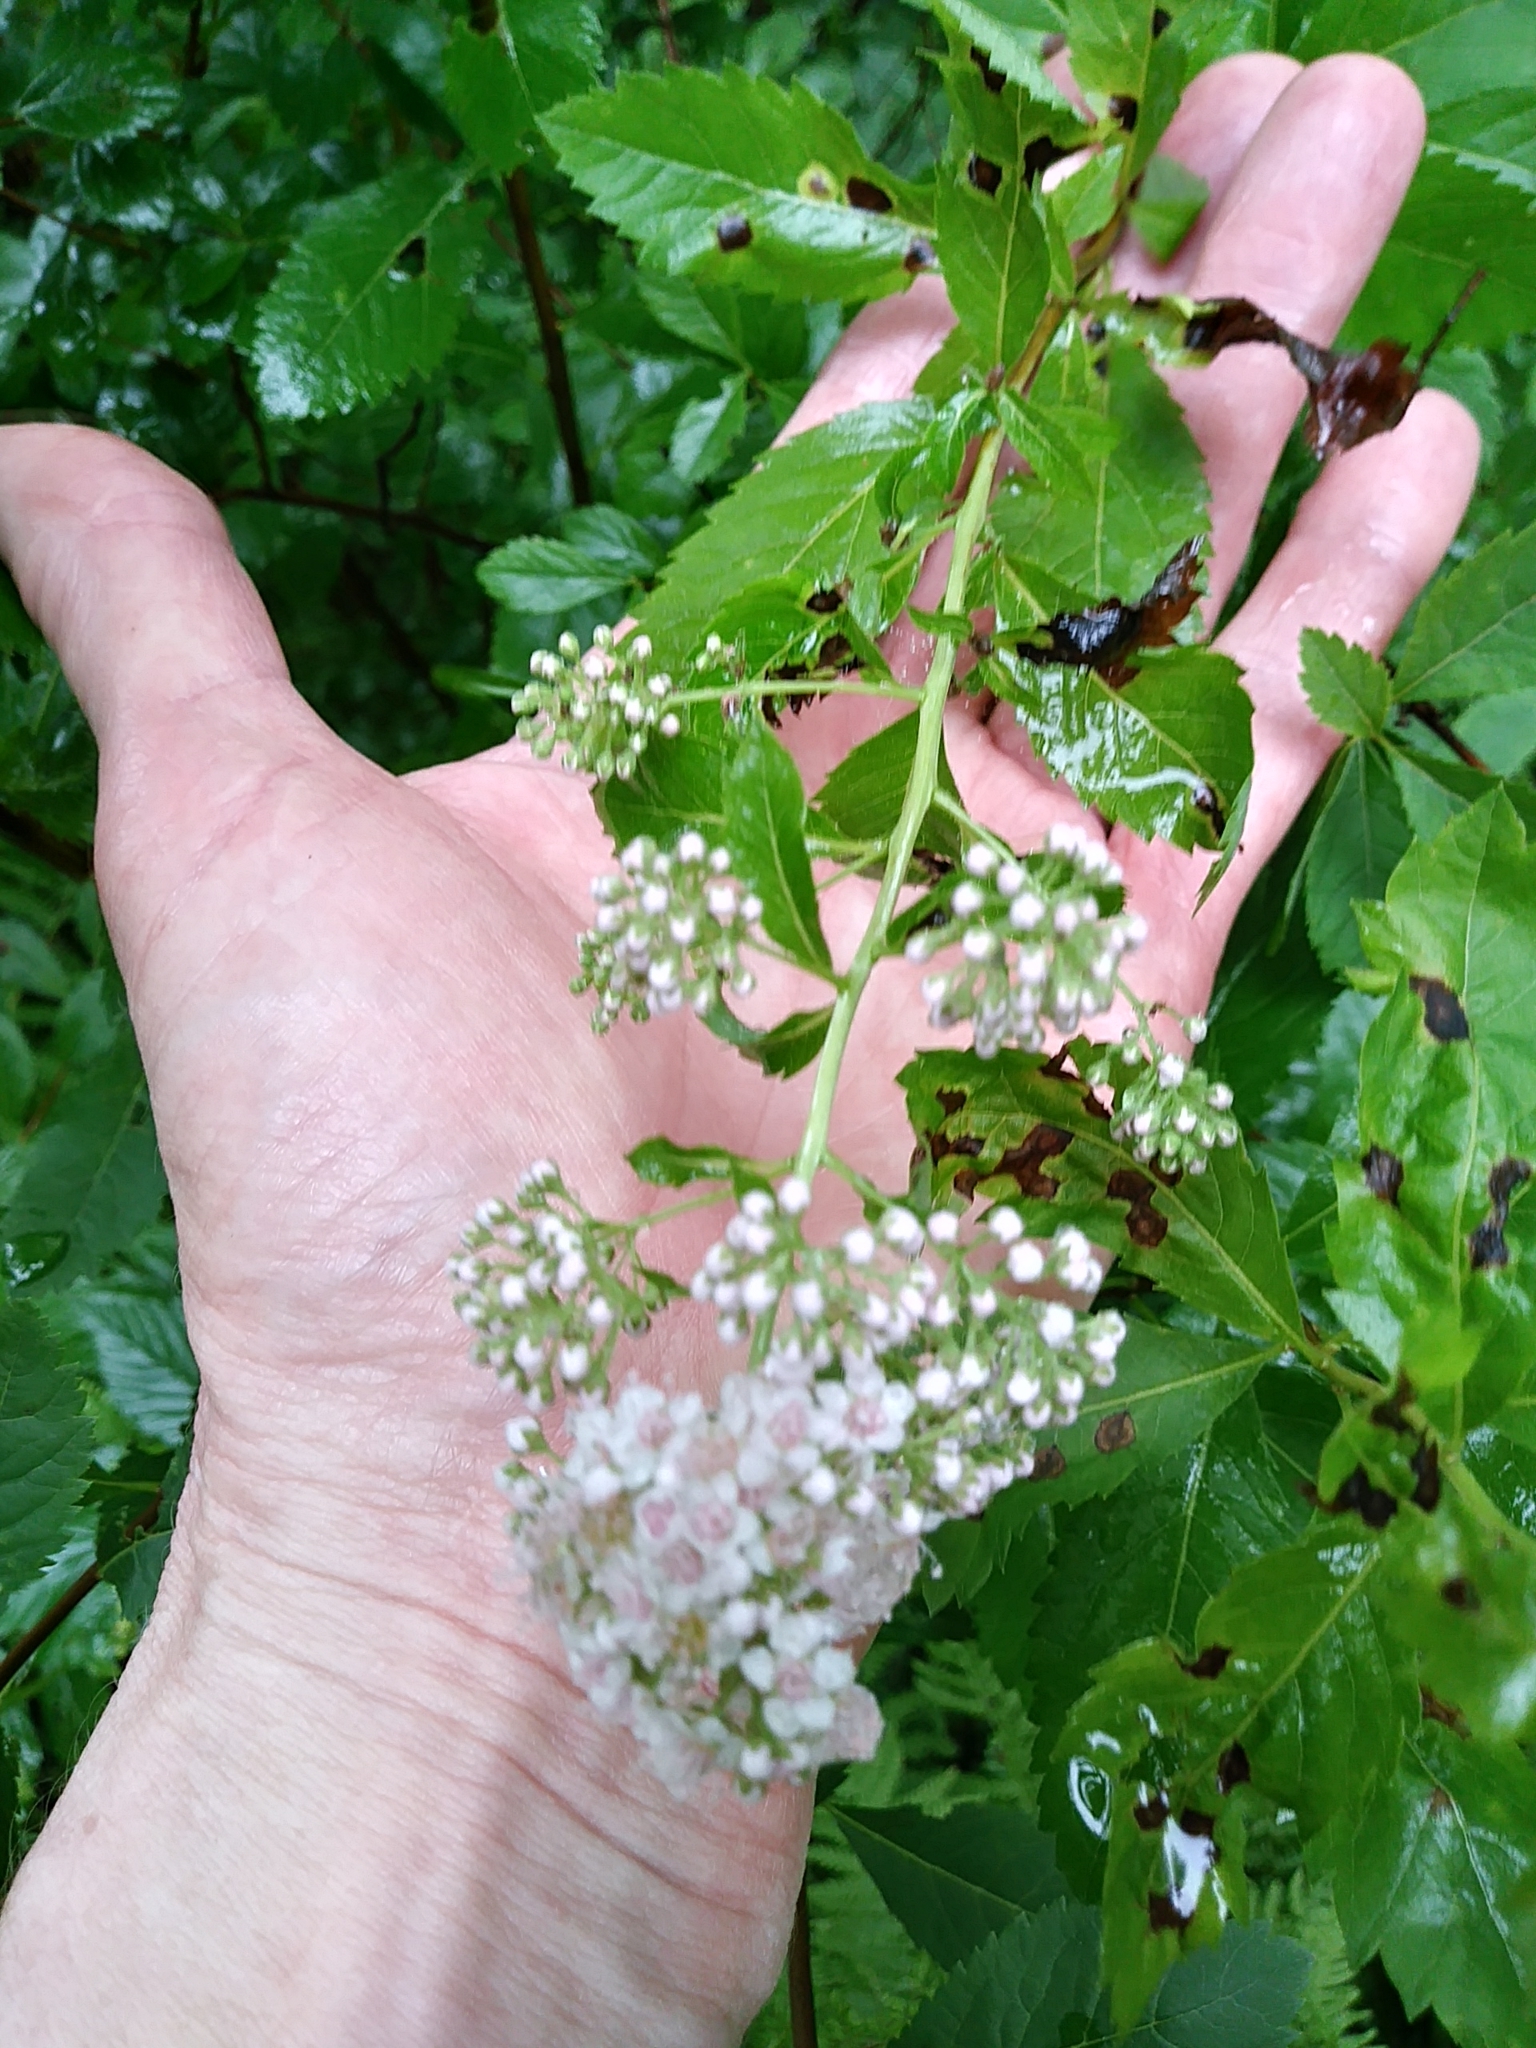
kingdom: Plantae
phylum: Tracheophyta
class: Magnoliopsida
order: Rosales
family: Rosaceae
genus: Spiraea
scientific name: Spiraea alba
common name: Pale bridewort
